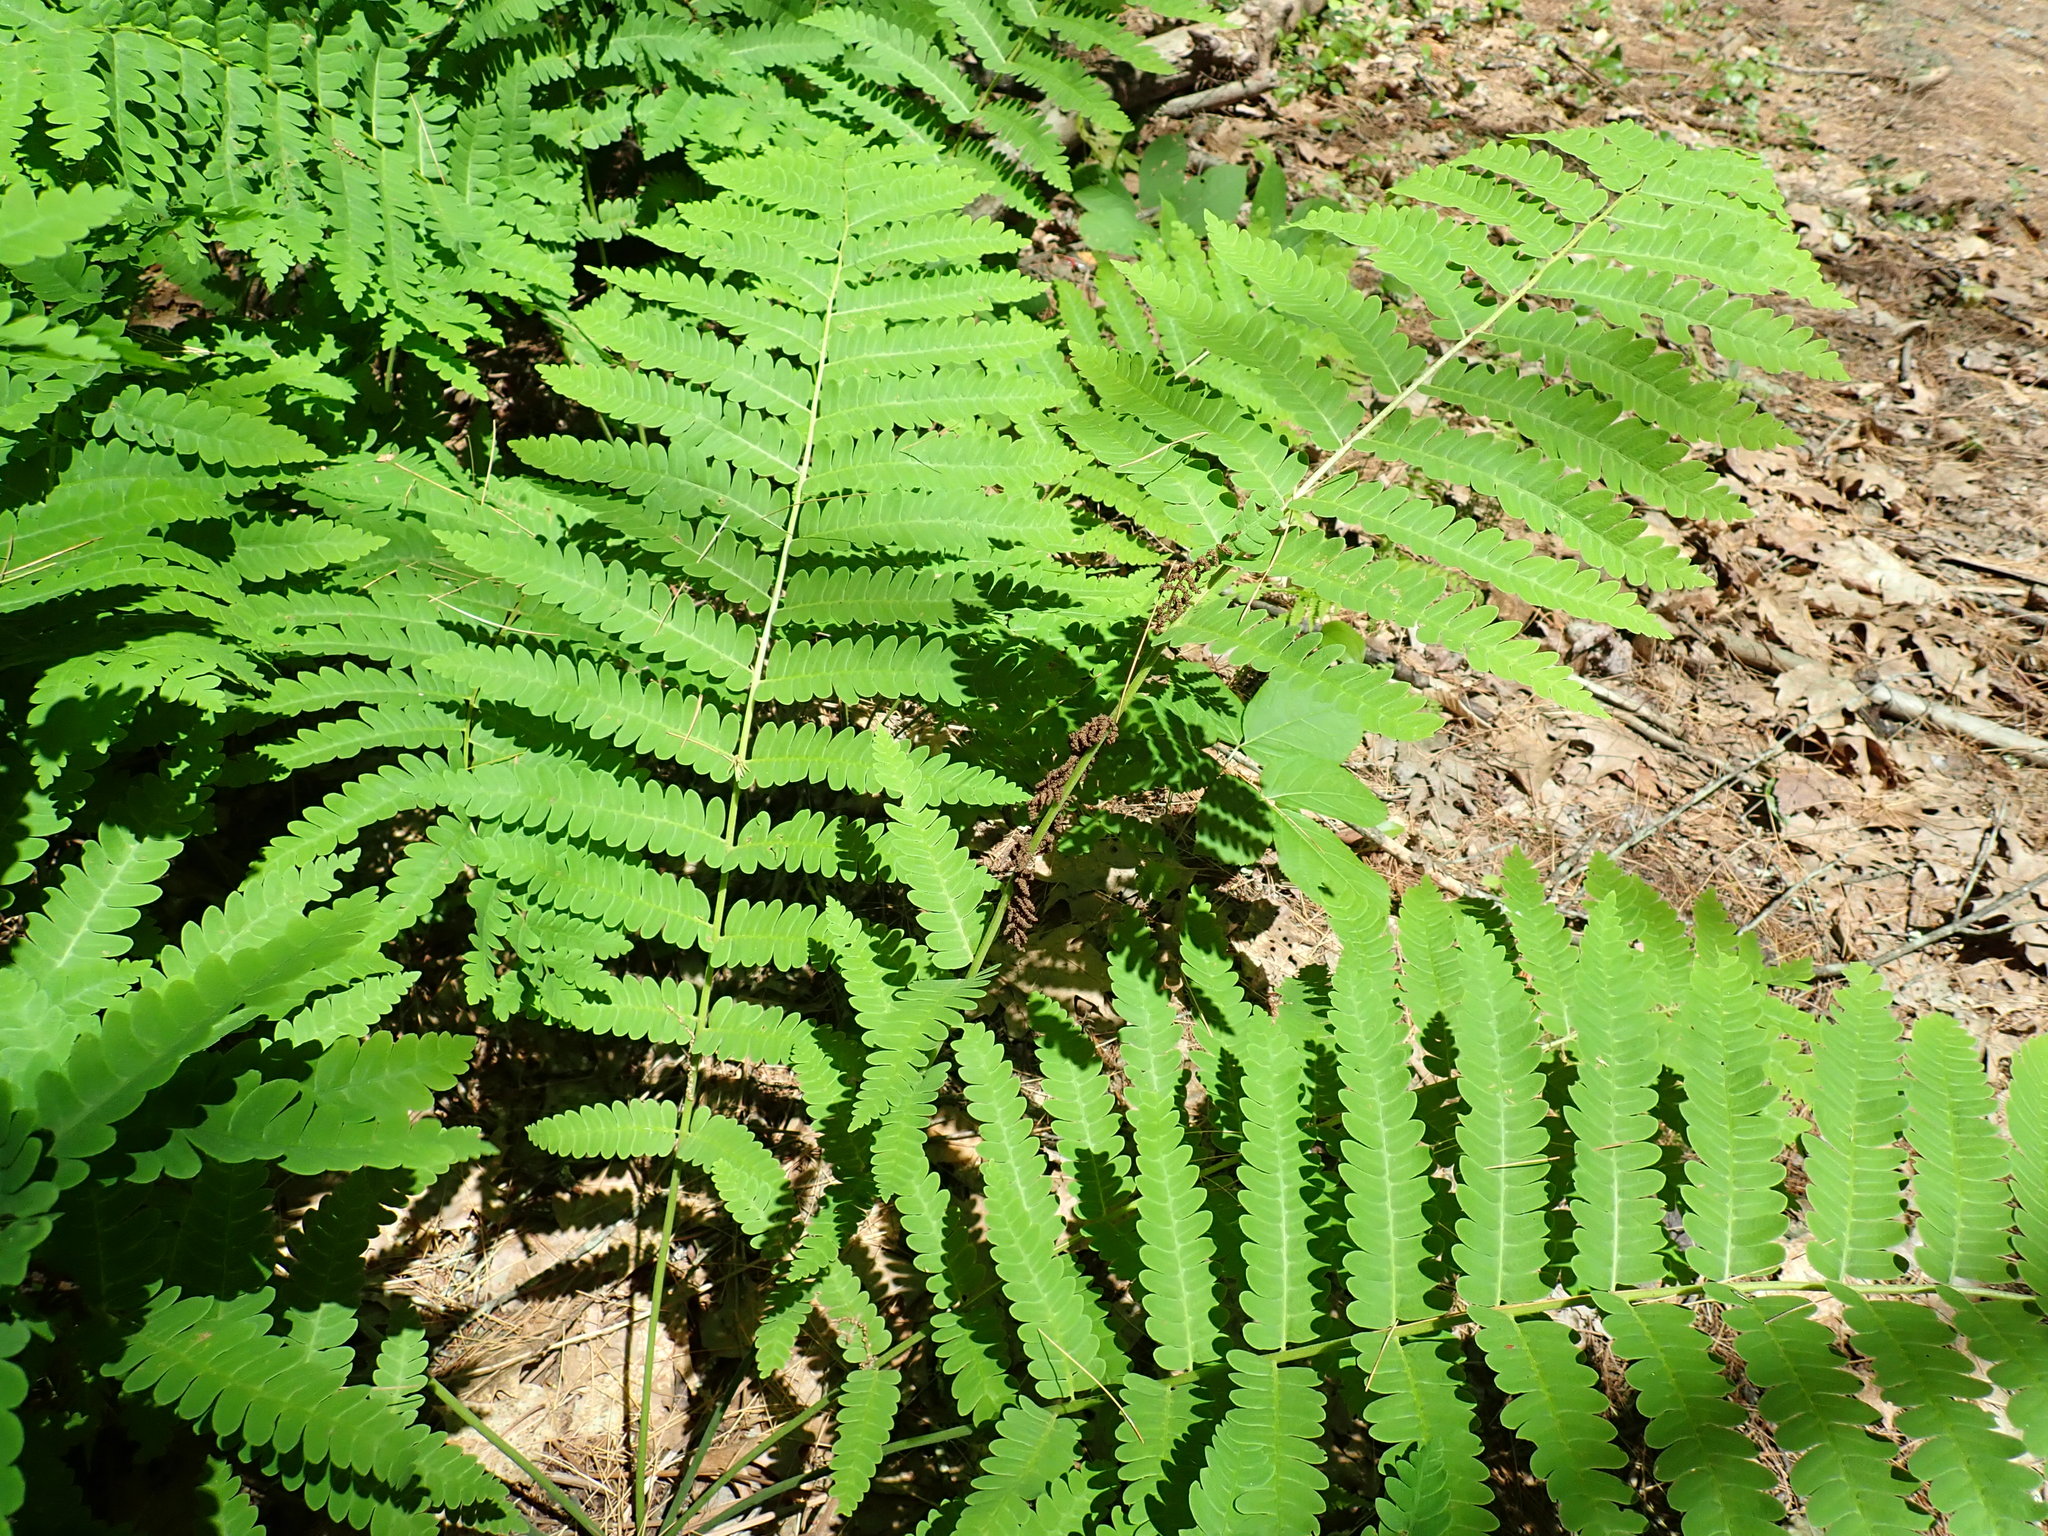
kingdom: Plantae
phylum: Tracheophyta
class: Polypodiopsida
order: Osmundales
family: Osmundaceae
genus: Claytosmunda
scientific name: Claytosmunda claytoniana
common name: Clayton's fern
